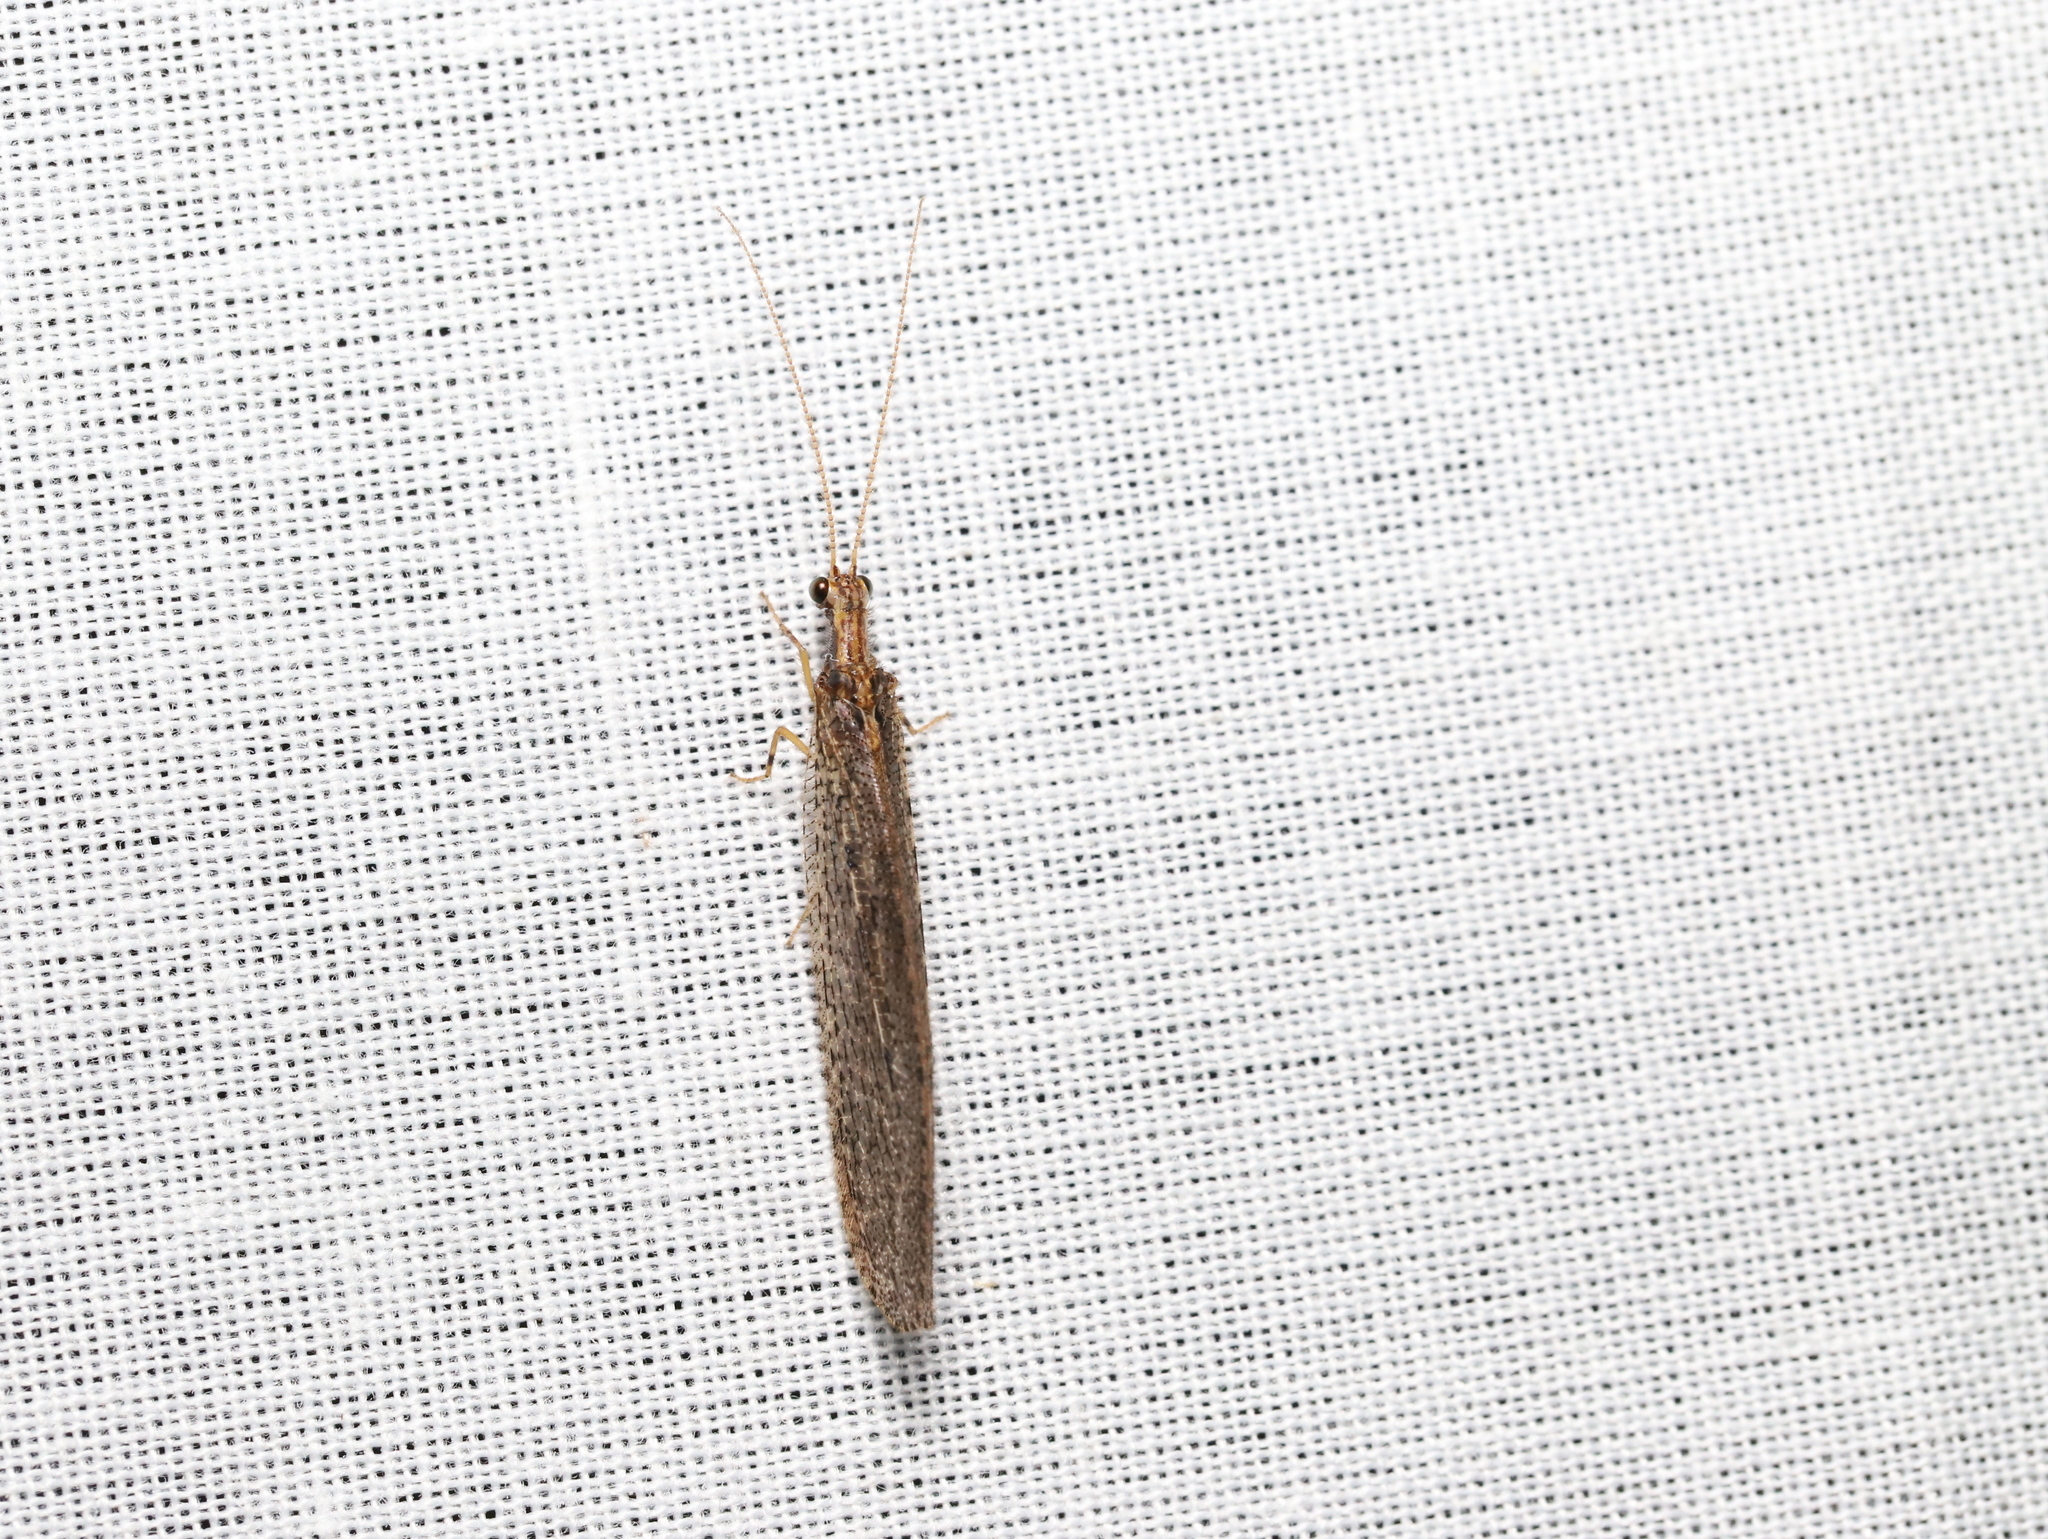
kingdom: Animalia
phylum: Arthropoda
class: Insecta
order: Neuroptera
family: Osmylidae
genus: Stenosmylus
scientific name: Stenosmylus tenuis
